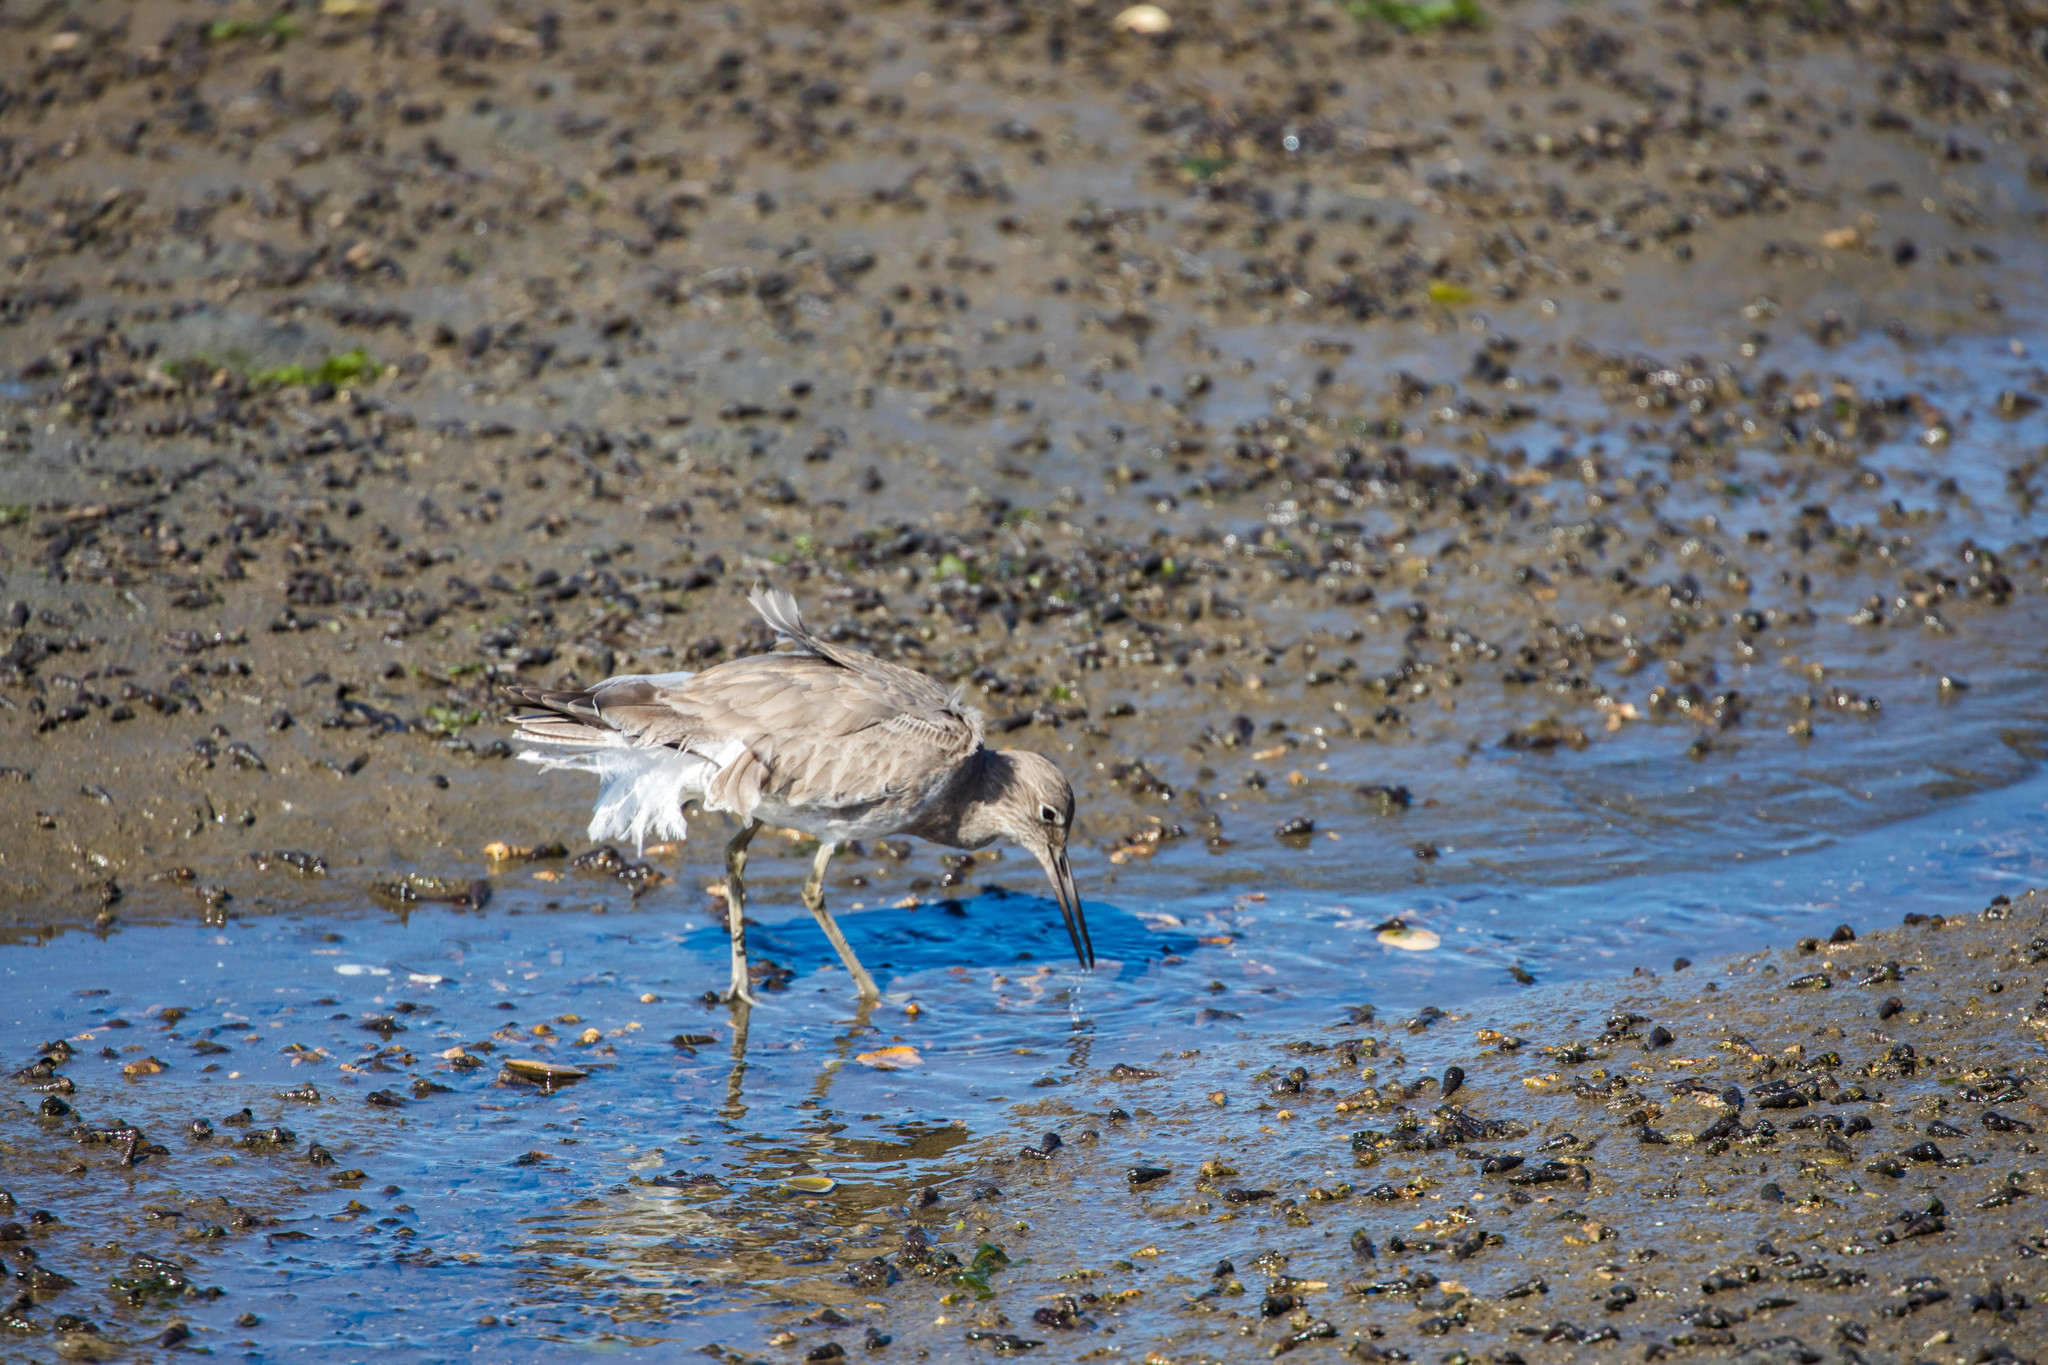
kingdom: Animalia
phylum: Chordata
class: Aves
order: Charadriiformes
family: Scolopacidae
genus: Tringa
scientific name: Tringa semipalmata
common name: Willet
